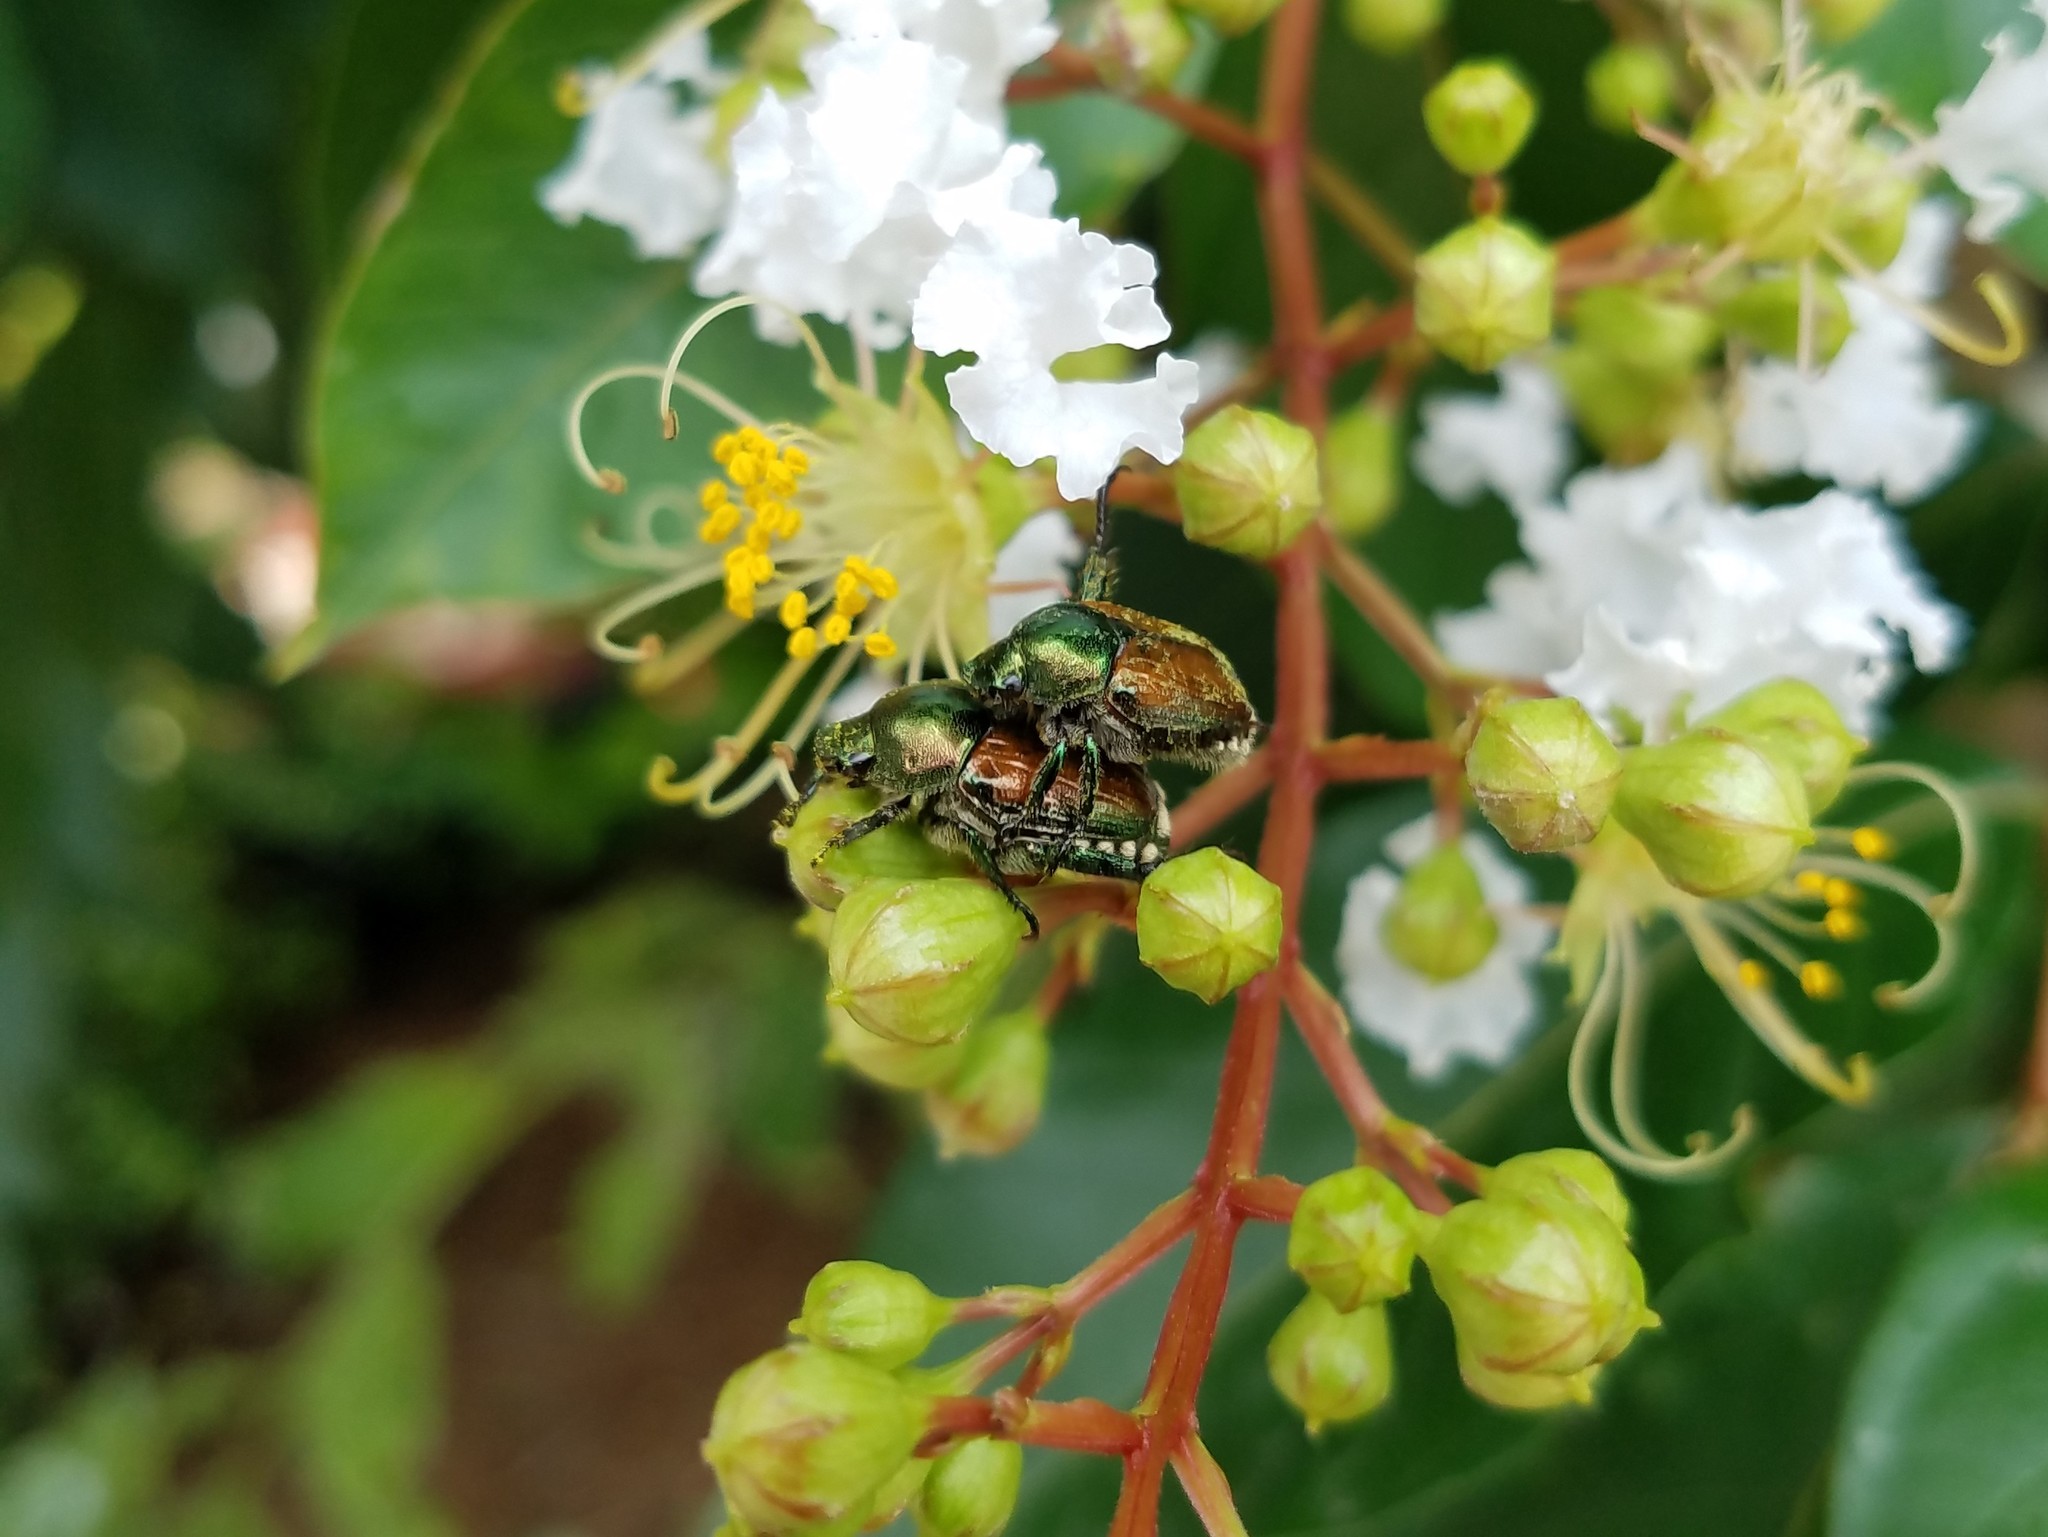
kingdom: Animalia
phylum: Arthropoda
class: Insecta
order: Coleoptera
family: Scarabaeidae
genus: Popillia
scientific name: Popillia japonica
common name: Japanese beetle
